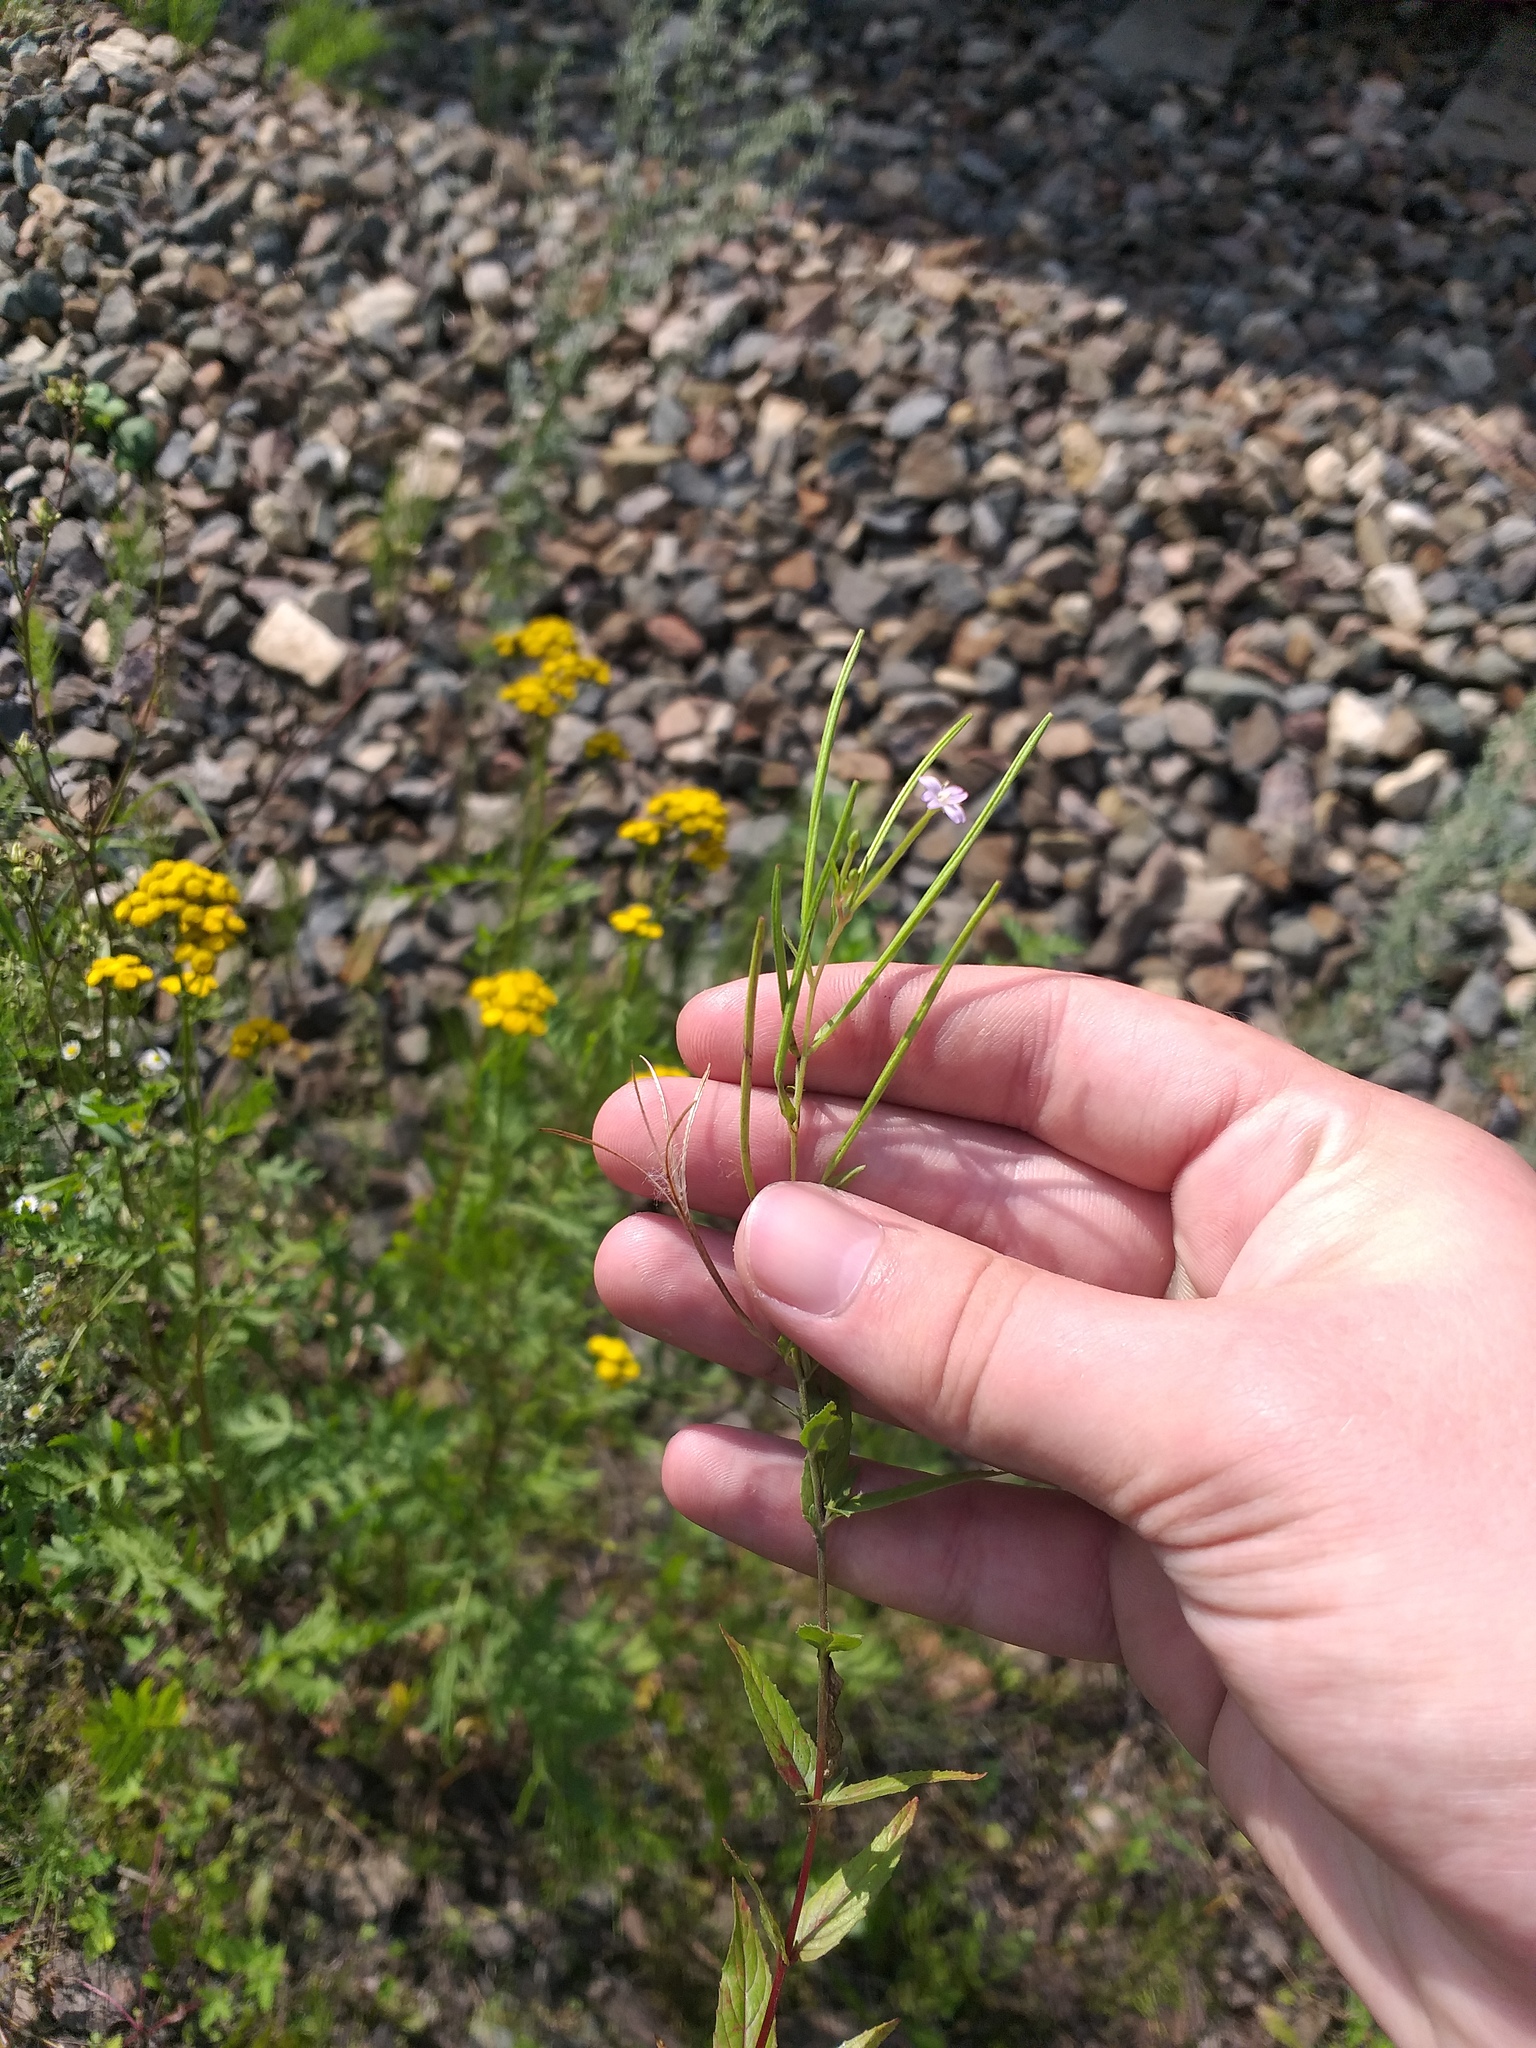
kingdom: Plantae
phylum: Tracheophyta
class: Magnoliopsida
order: Myrtales
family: Onagraceae
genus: Epilobium
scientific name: Epilobium ciliatum
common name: American willowherb
